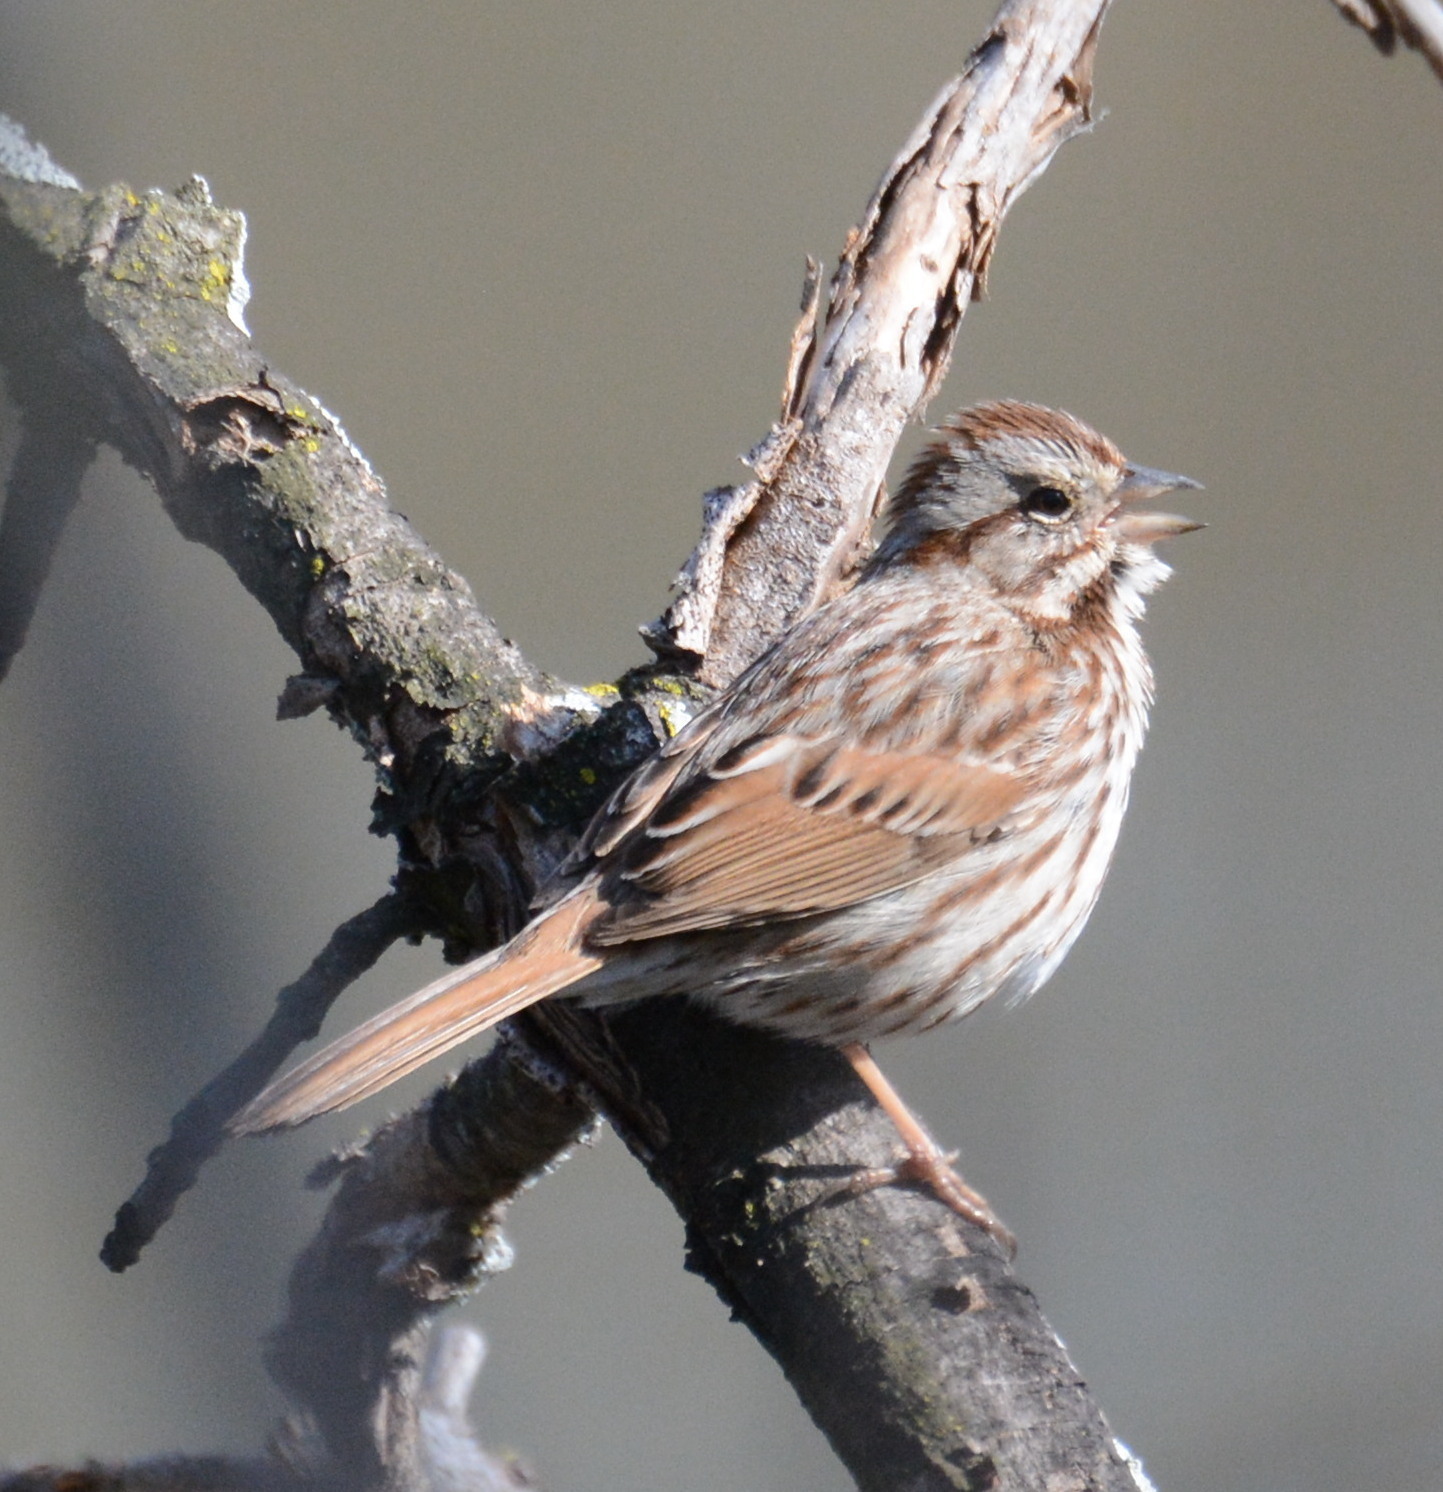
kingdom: Animalia
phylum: Chordata
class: Aves
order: Passeriformes
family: Passerellidae
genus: Melospiza
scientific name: Melospiza melodia
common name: Song sparrow
